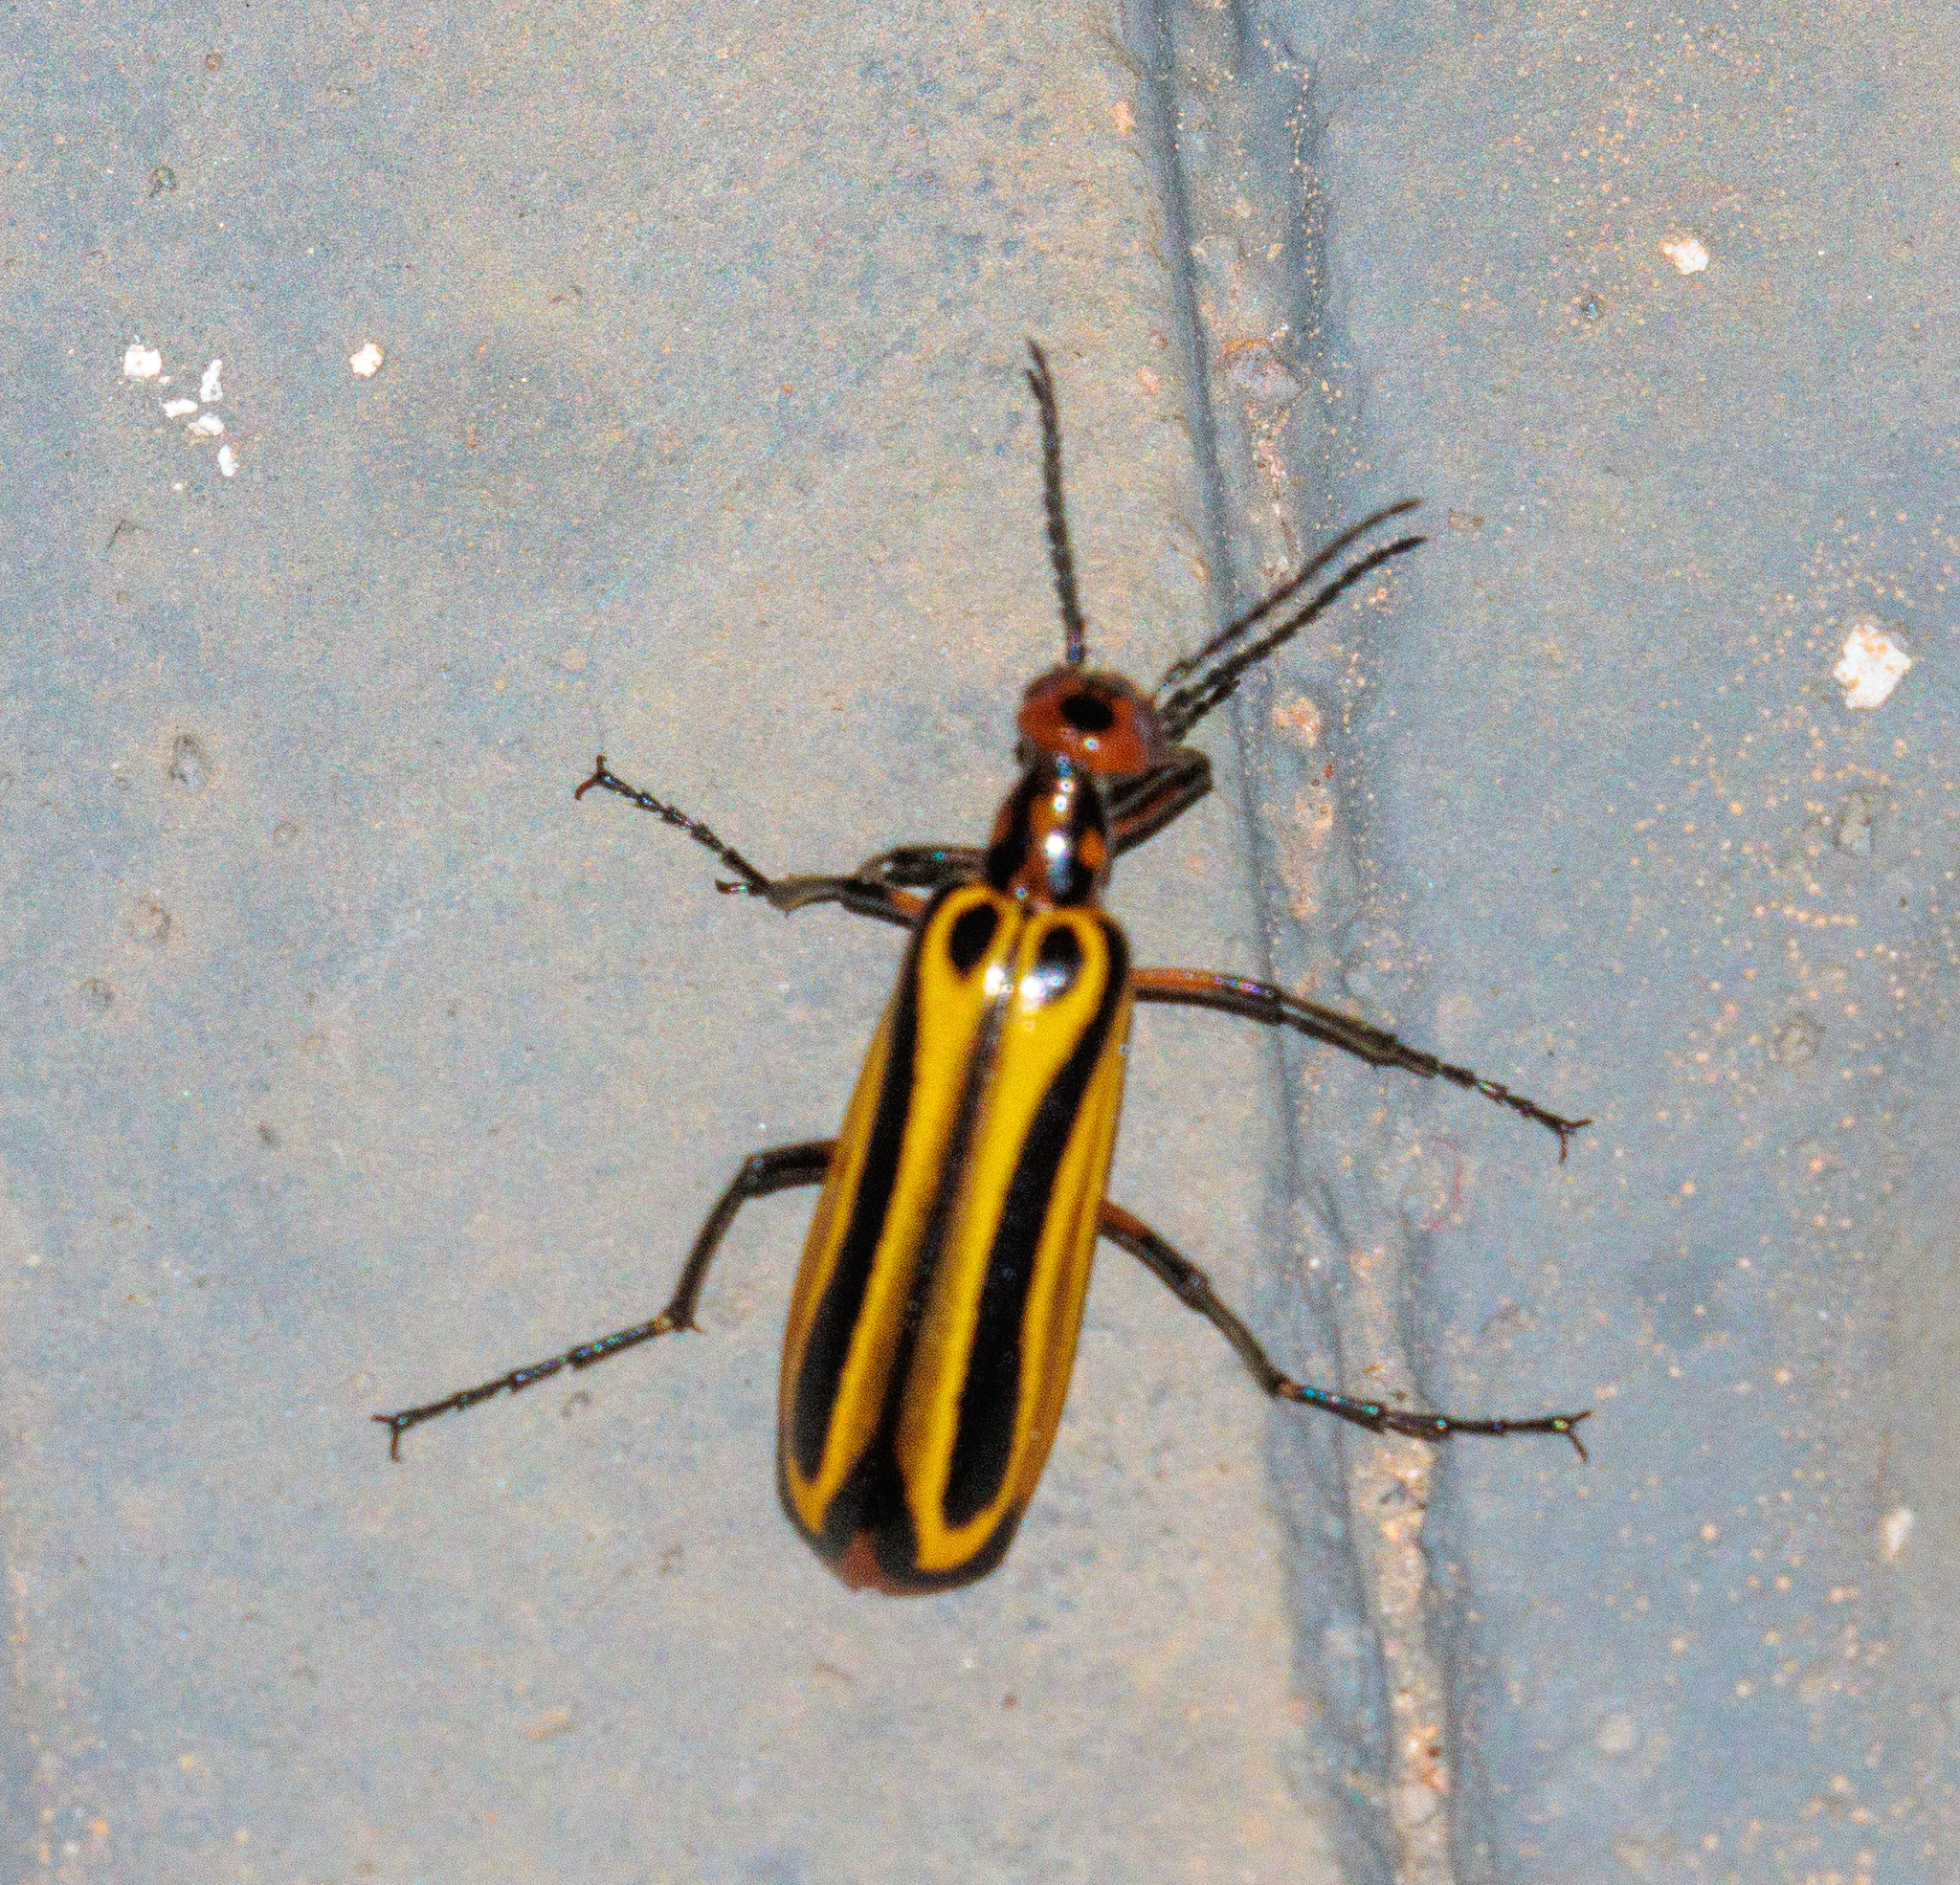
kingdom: Animalia
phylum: Arthropoda
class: Insecta
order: Coleoptera
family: Meloidae
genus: Pyrota
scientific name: Pyrota
